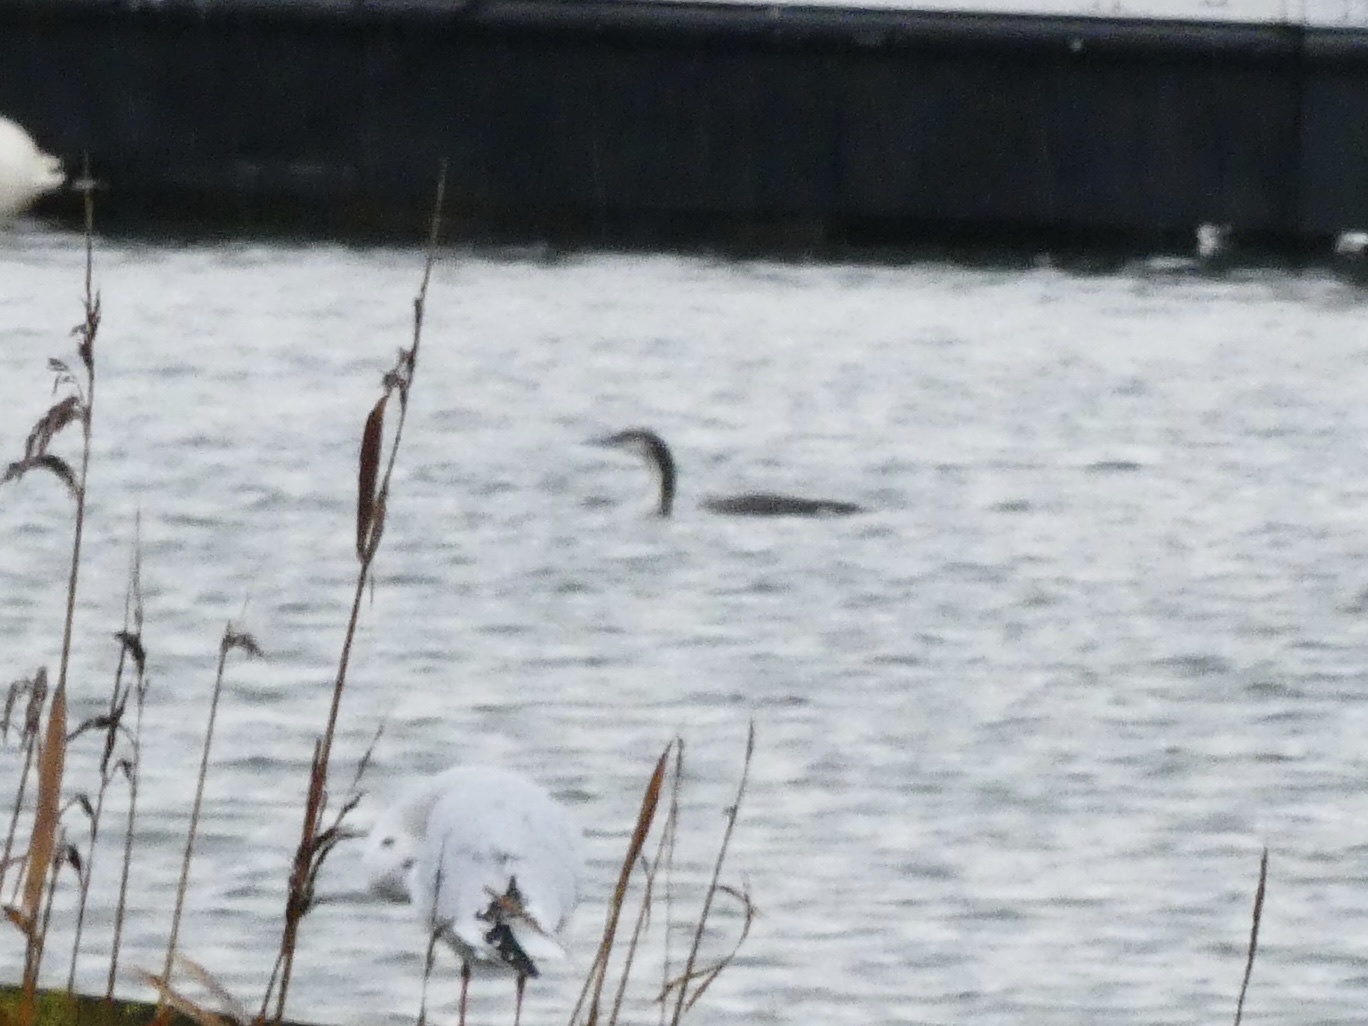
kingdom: Animalia
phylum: Chordata
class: Aves
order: Gaviiformes
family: Gaviidae
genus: Gavia
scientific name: Gavia arctica
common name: Black-throated loon
